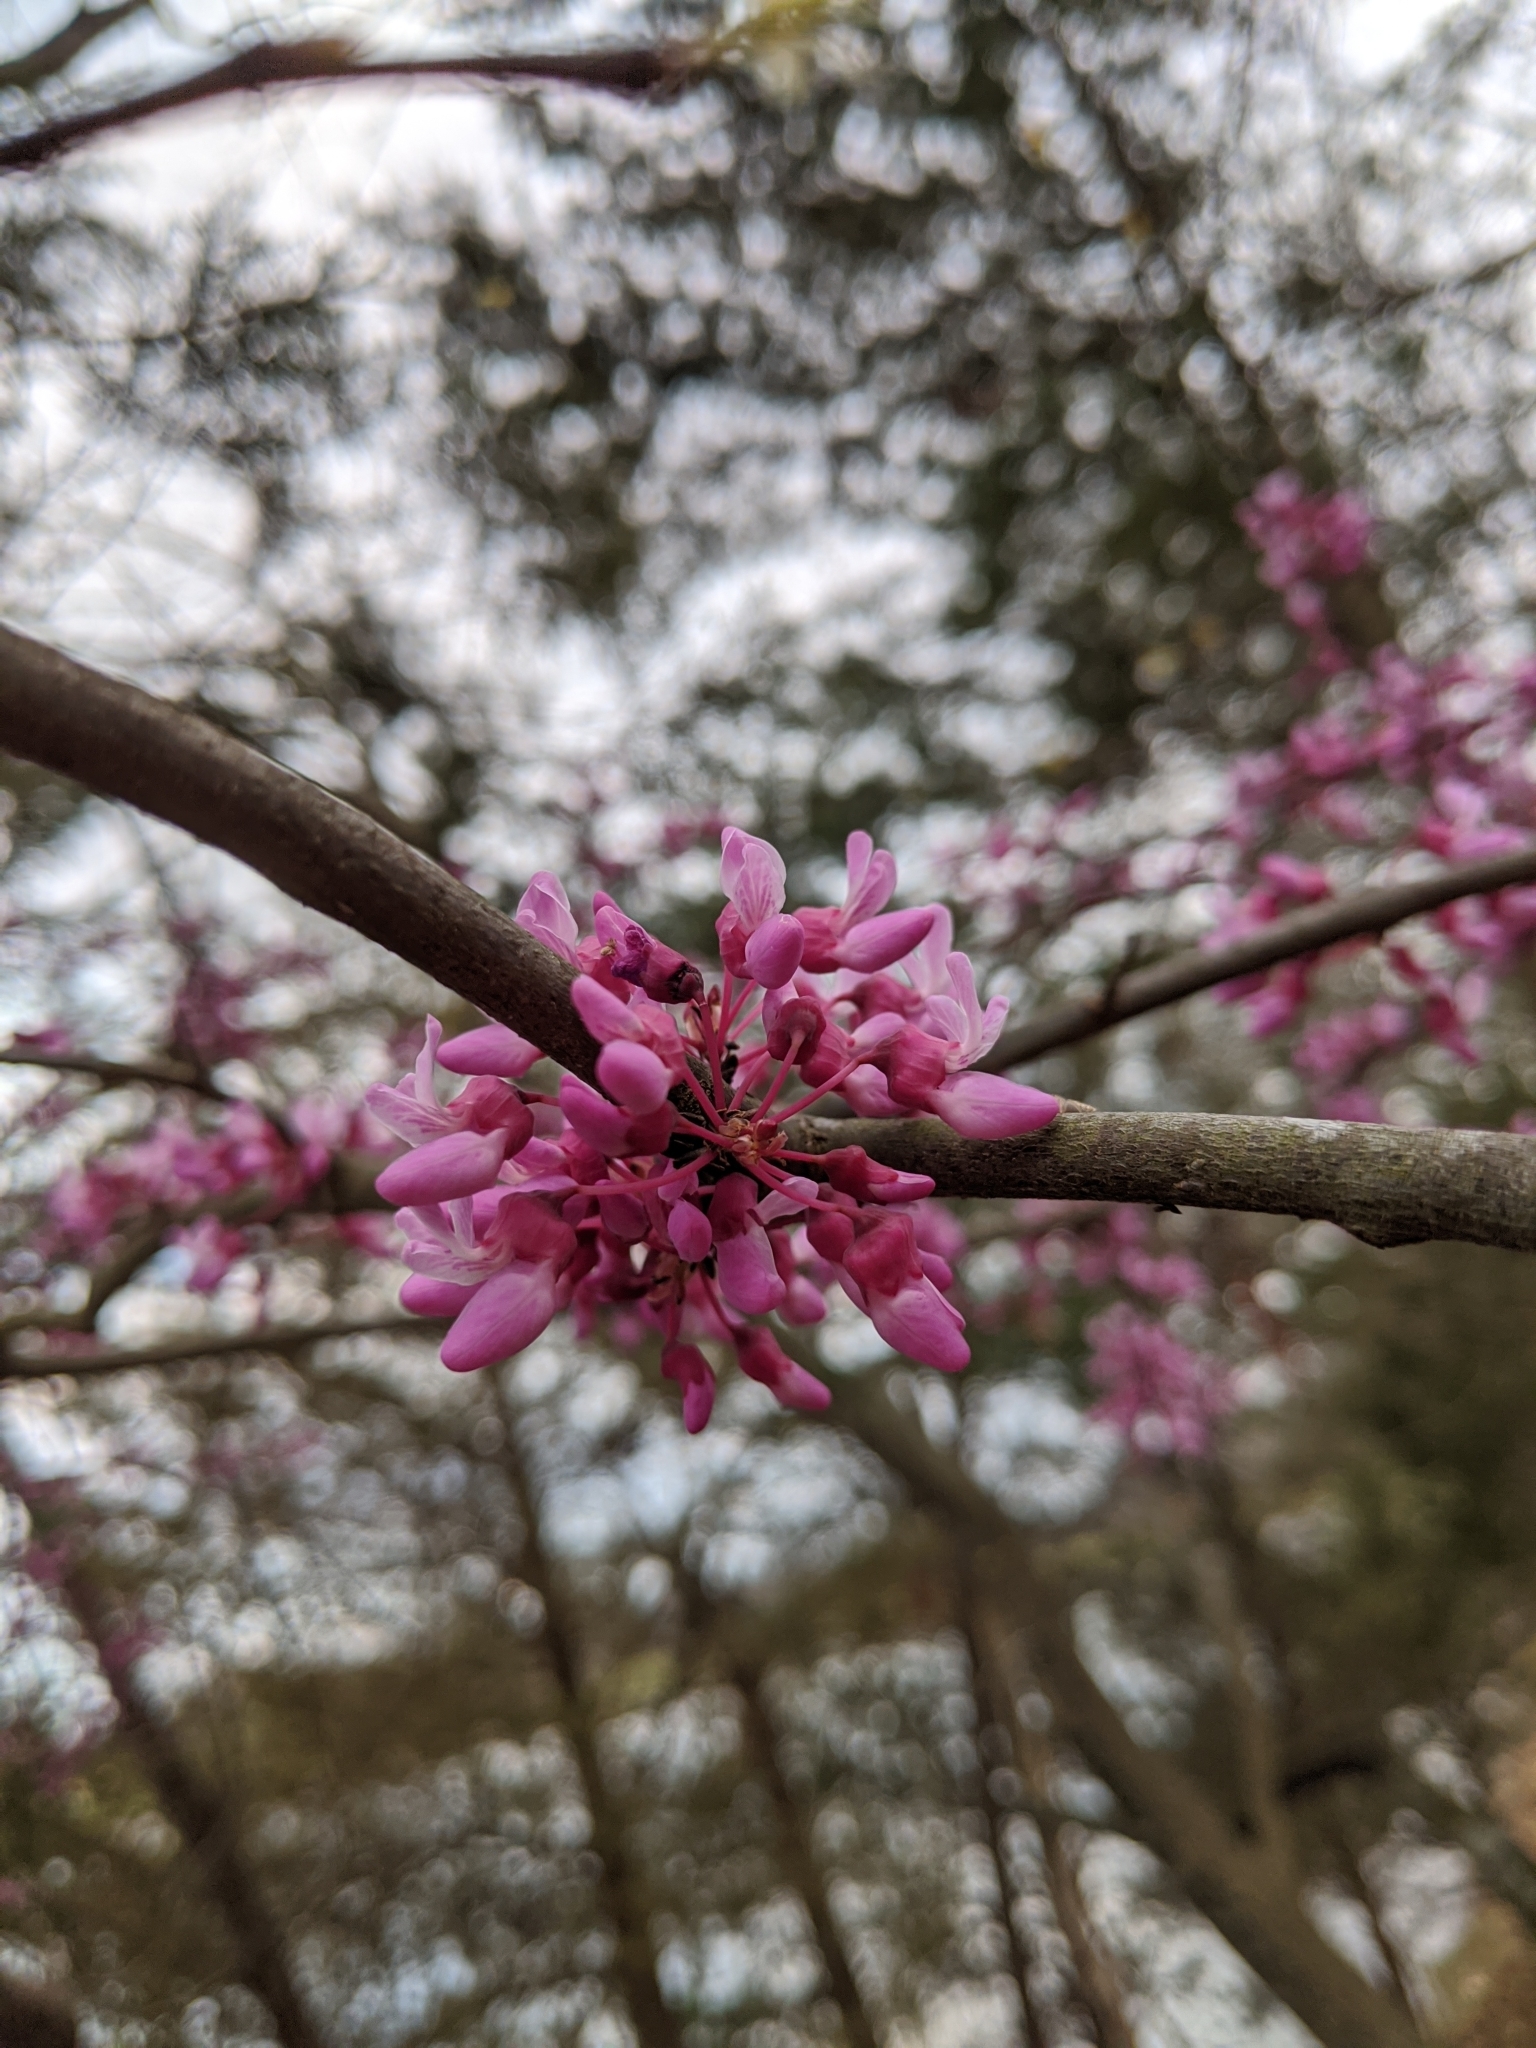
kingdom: Plantae
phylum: Tracheophyta
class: Magnoliopsida
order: Fabales
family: Fabaceae
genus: Cercis
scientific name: Cercis canadensis
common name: Eastern redbud
